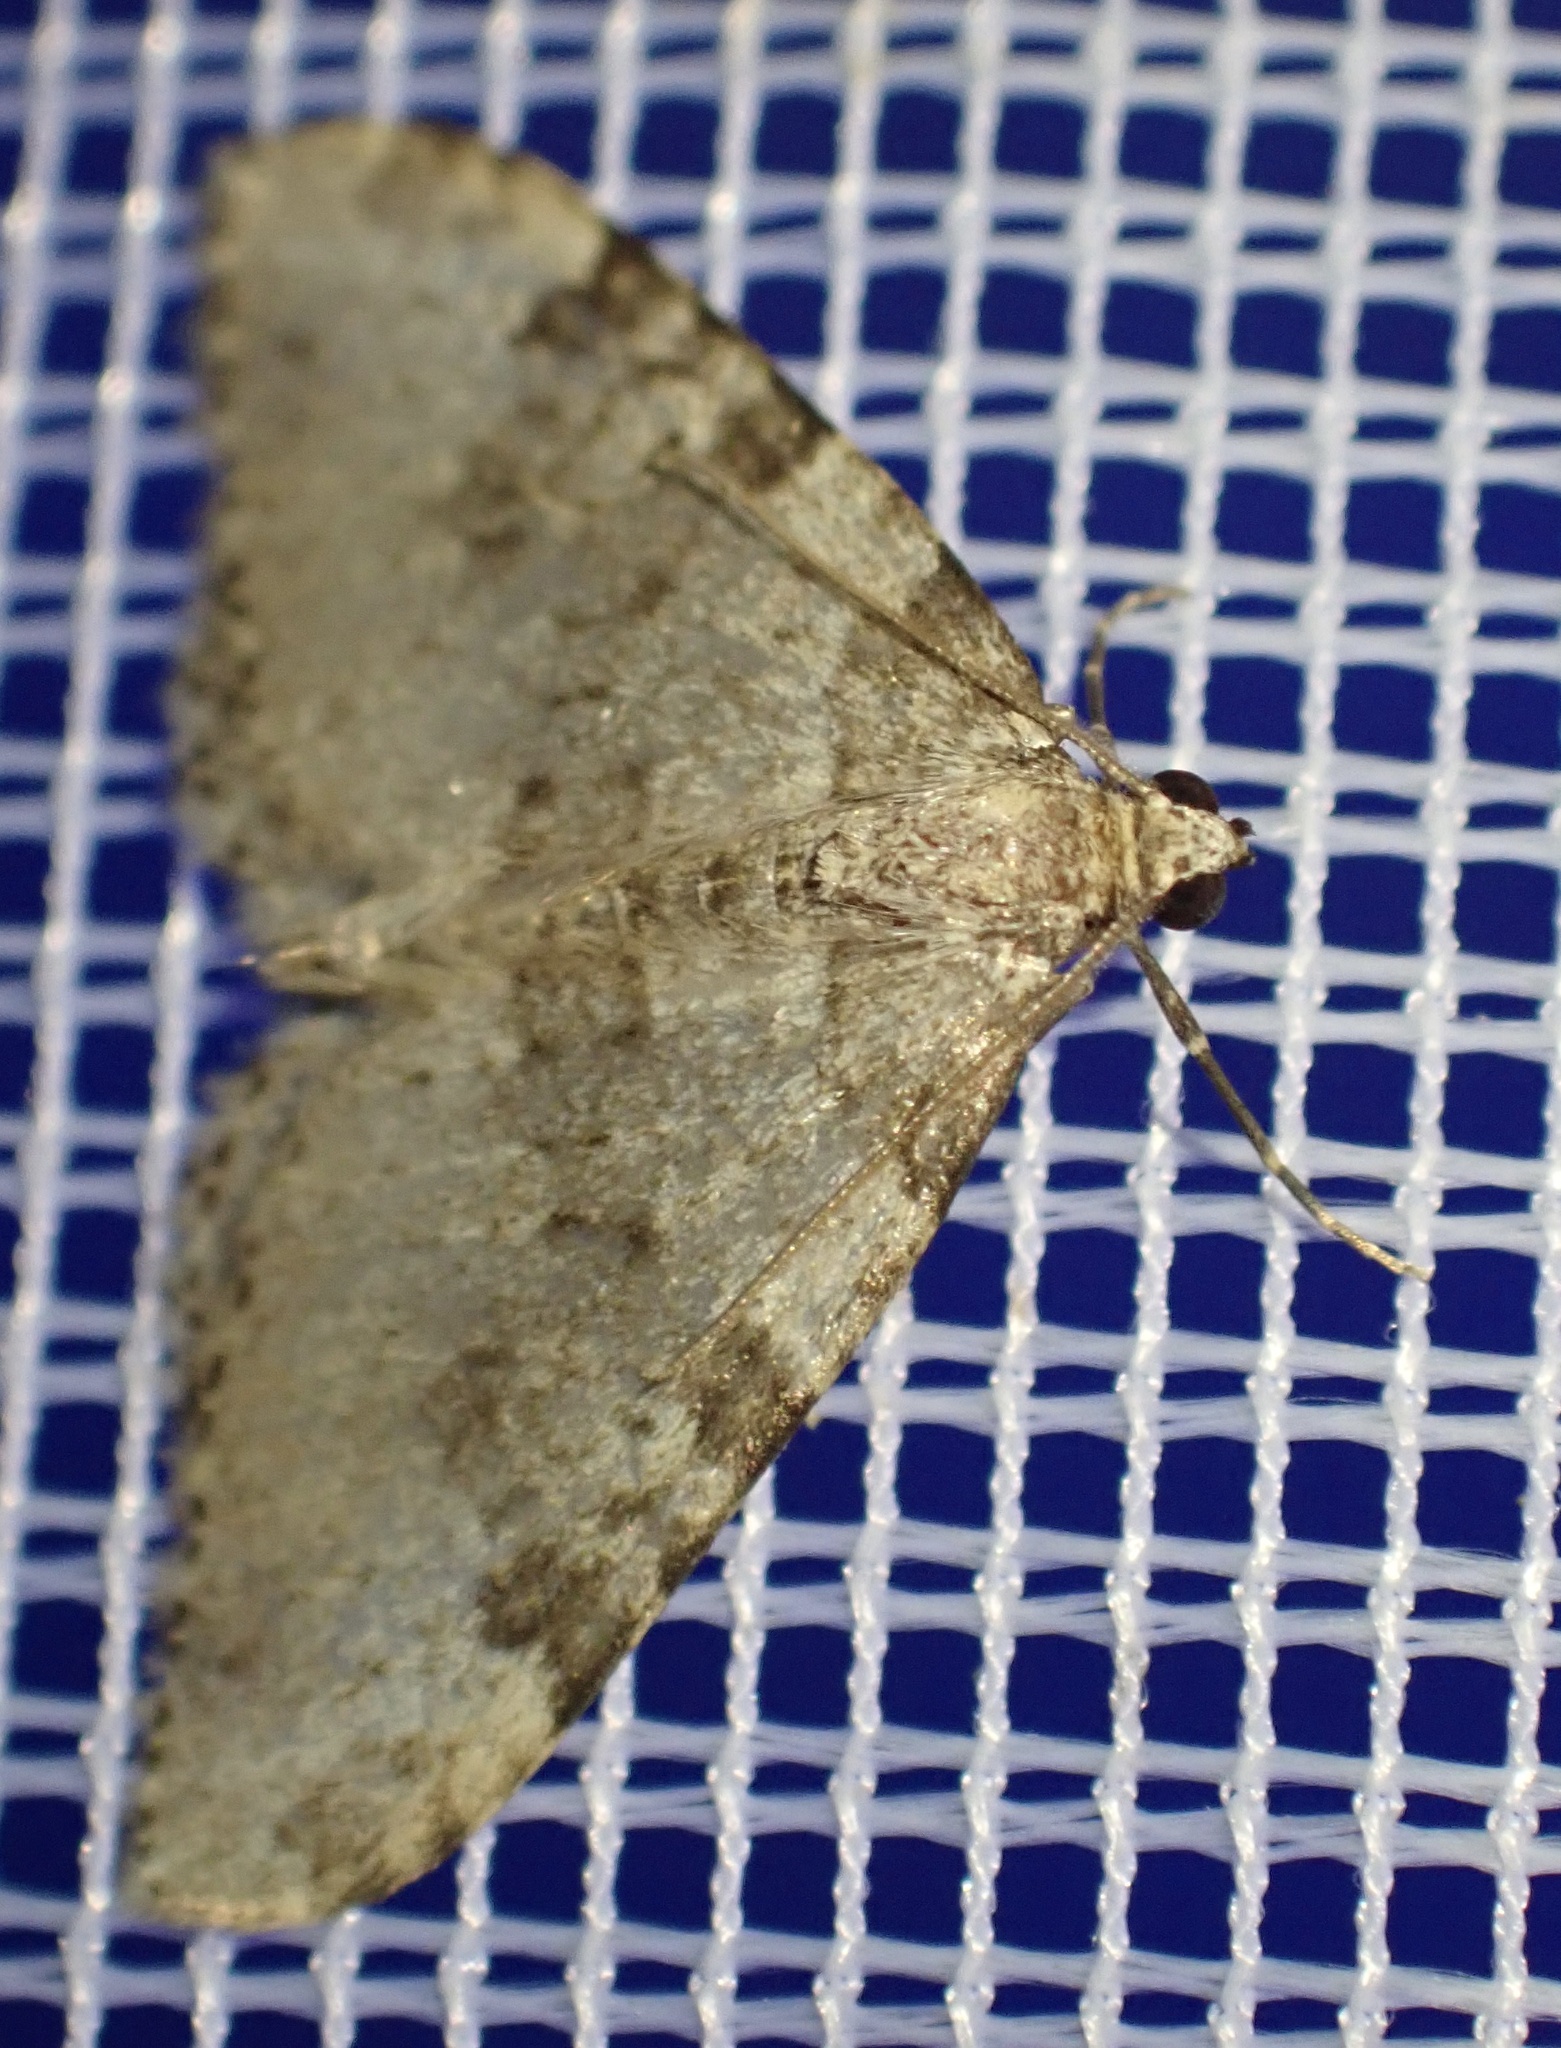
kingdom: Animalia
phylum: Arthropoda
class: Insecta
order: Lepidoptera
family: Geometridae
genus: Nebula
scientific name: Nebula ibericata
